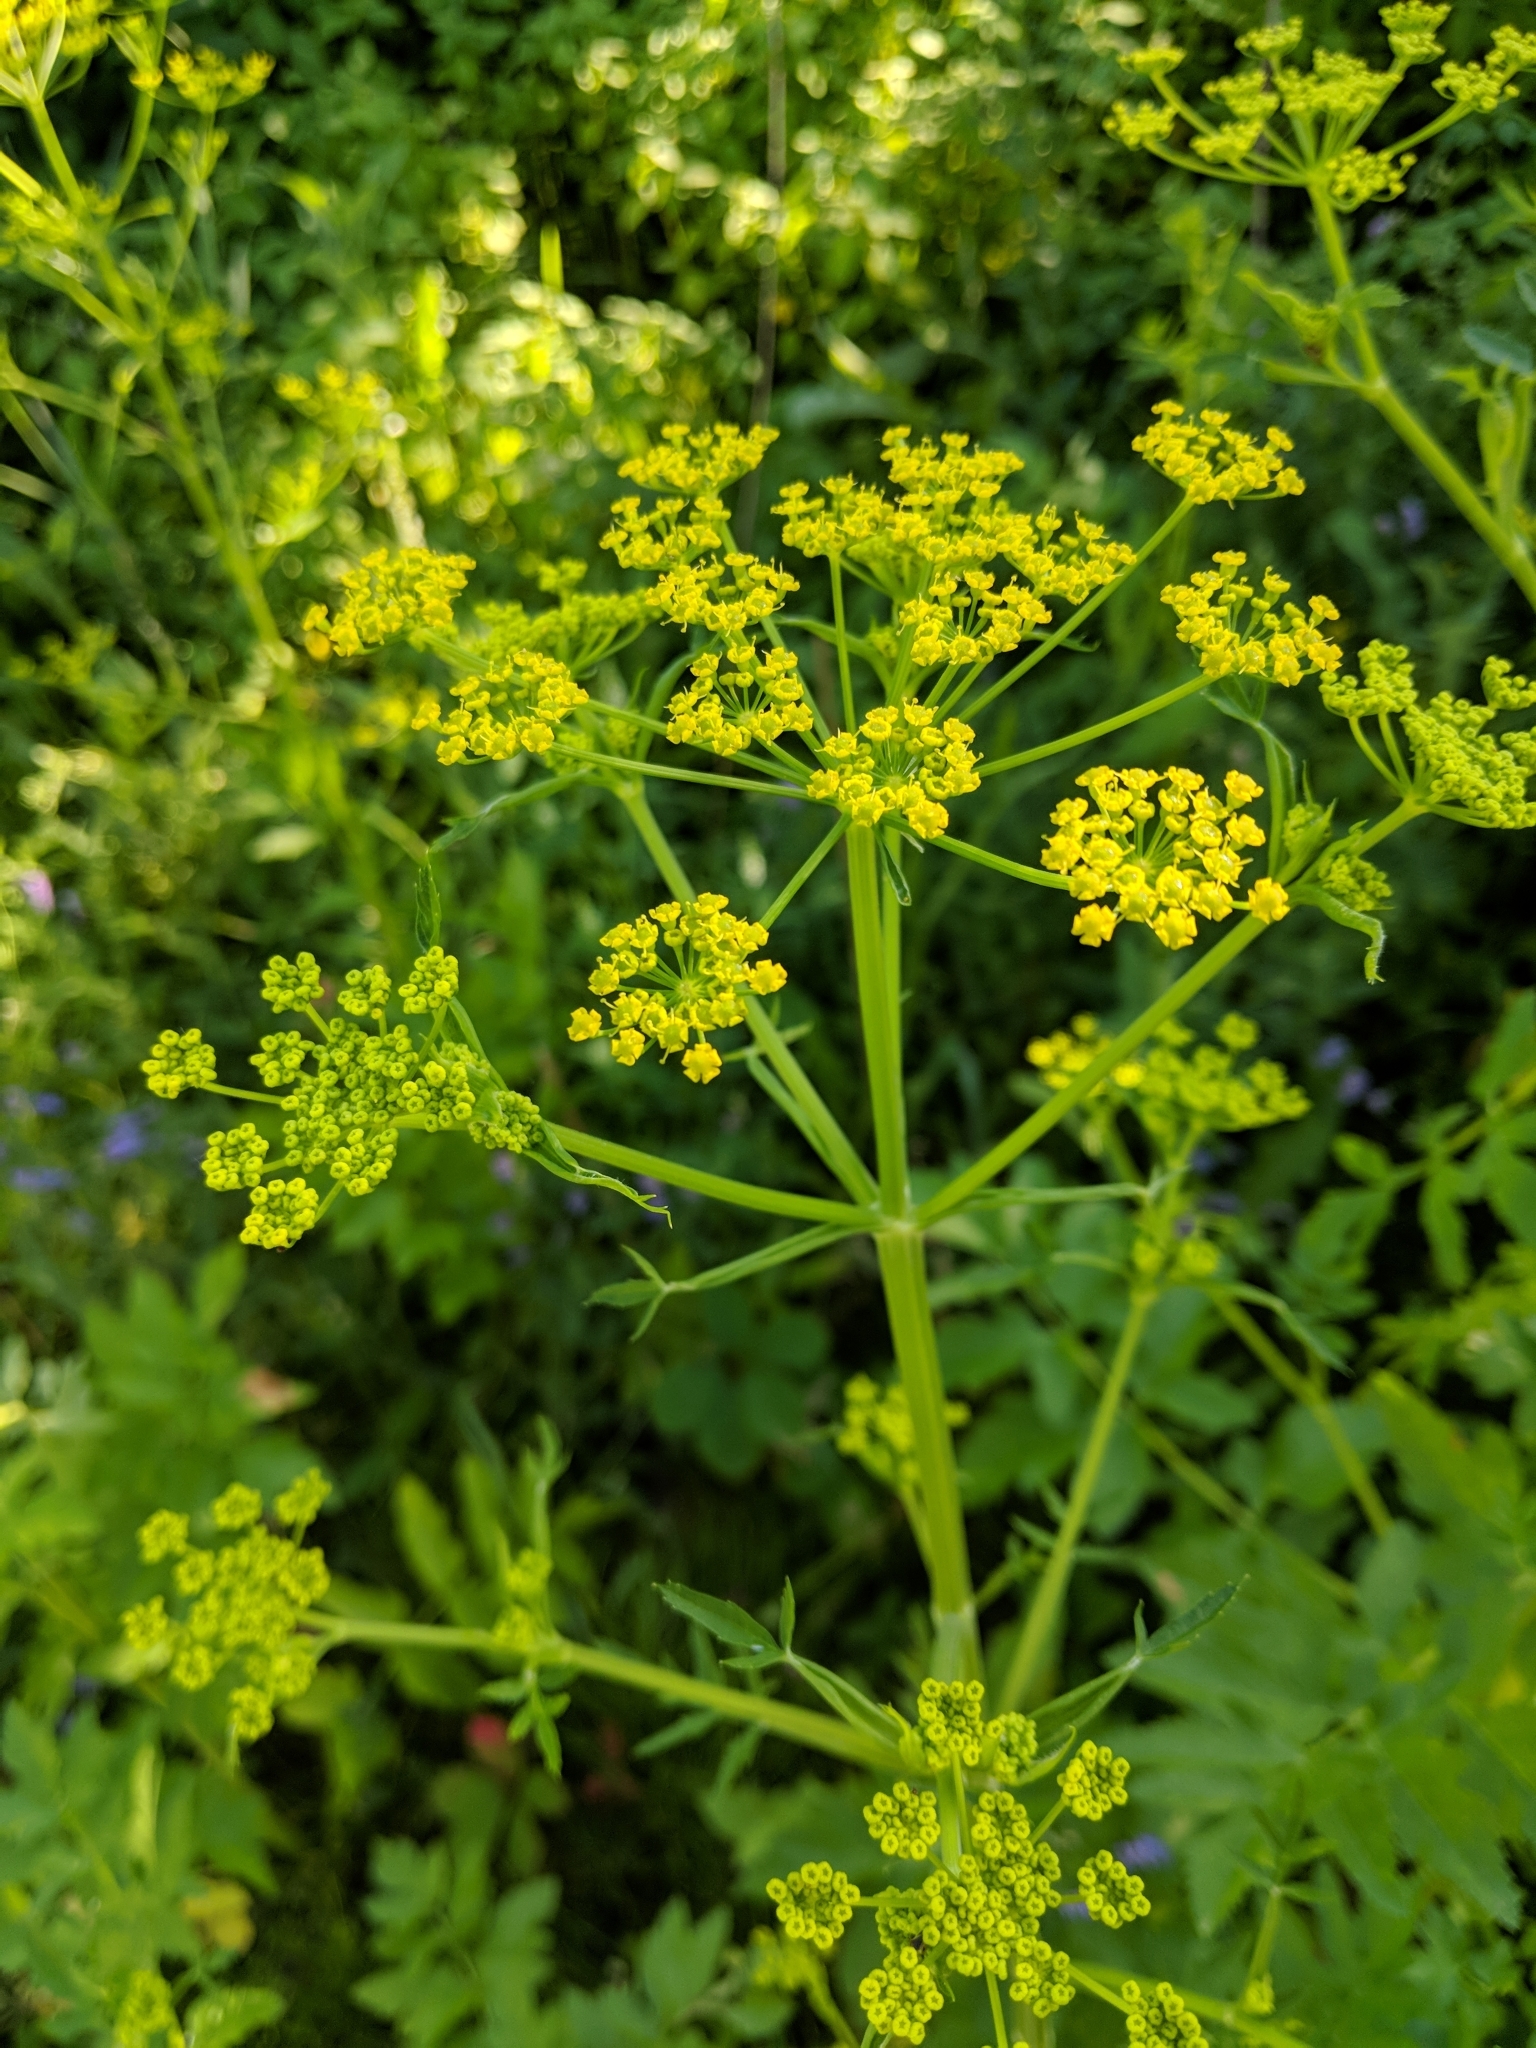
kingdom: Plantae
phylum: Tracheophyta
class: Magnoliopsida
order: Apiales
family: Apiaceae
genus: Pastinaca
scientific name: Pastinaca sativa
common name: Wild parsnip
